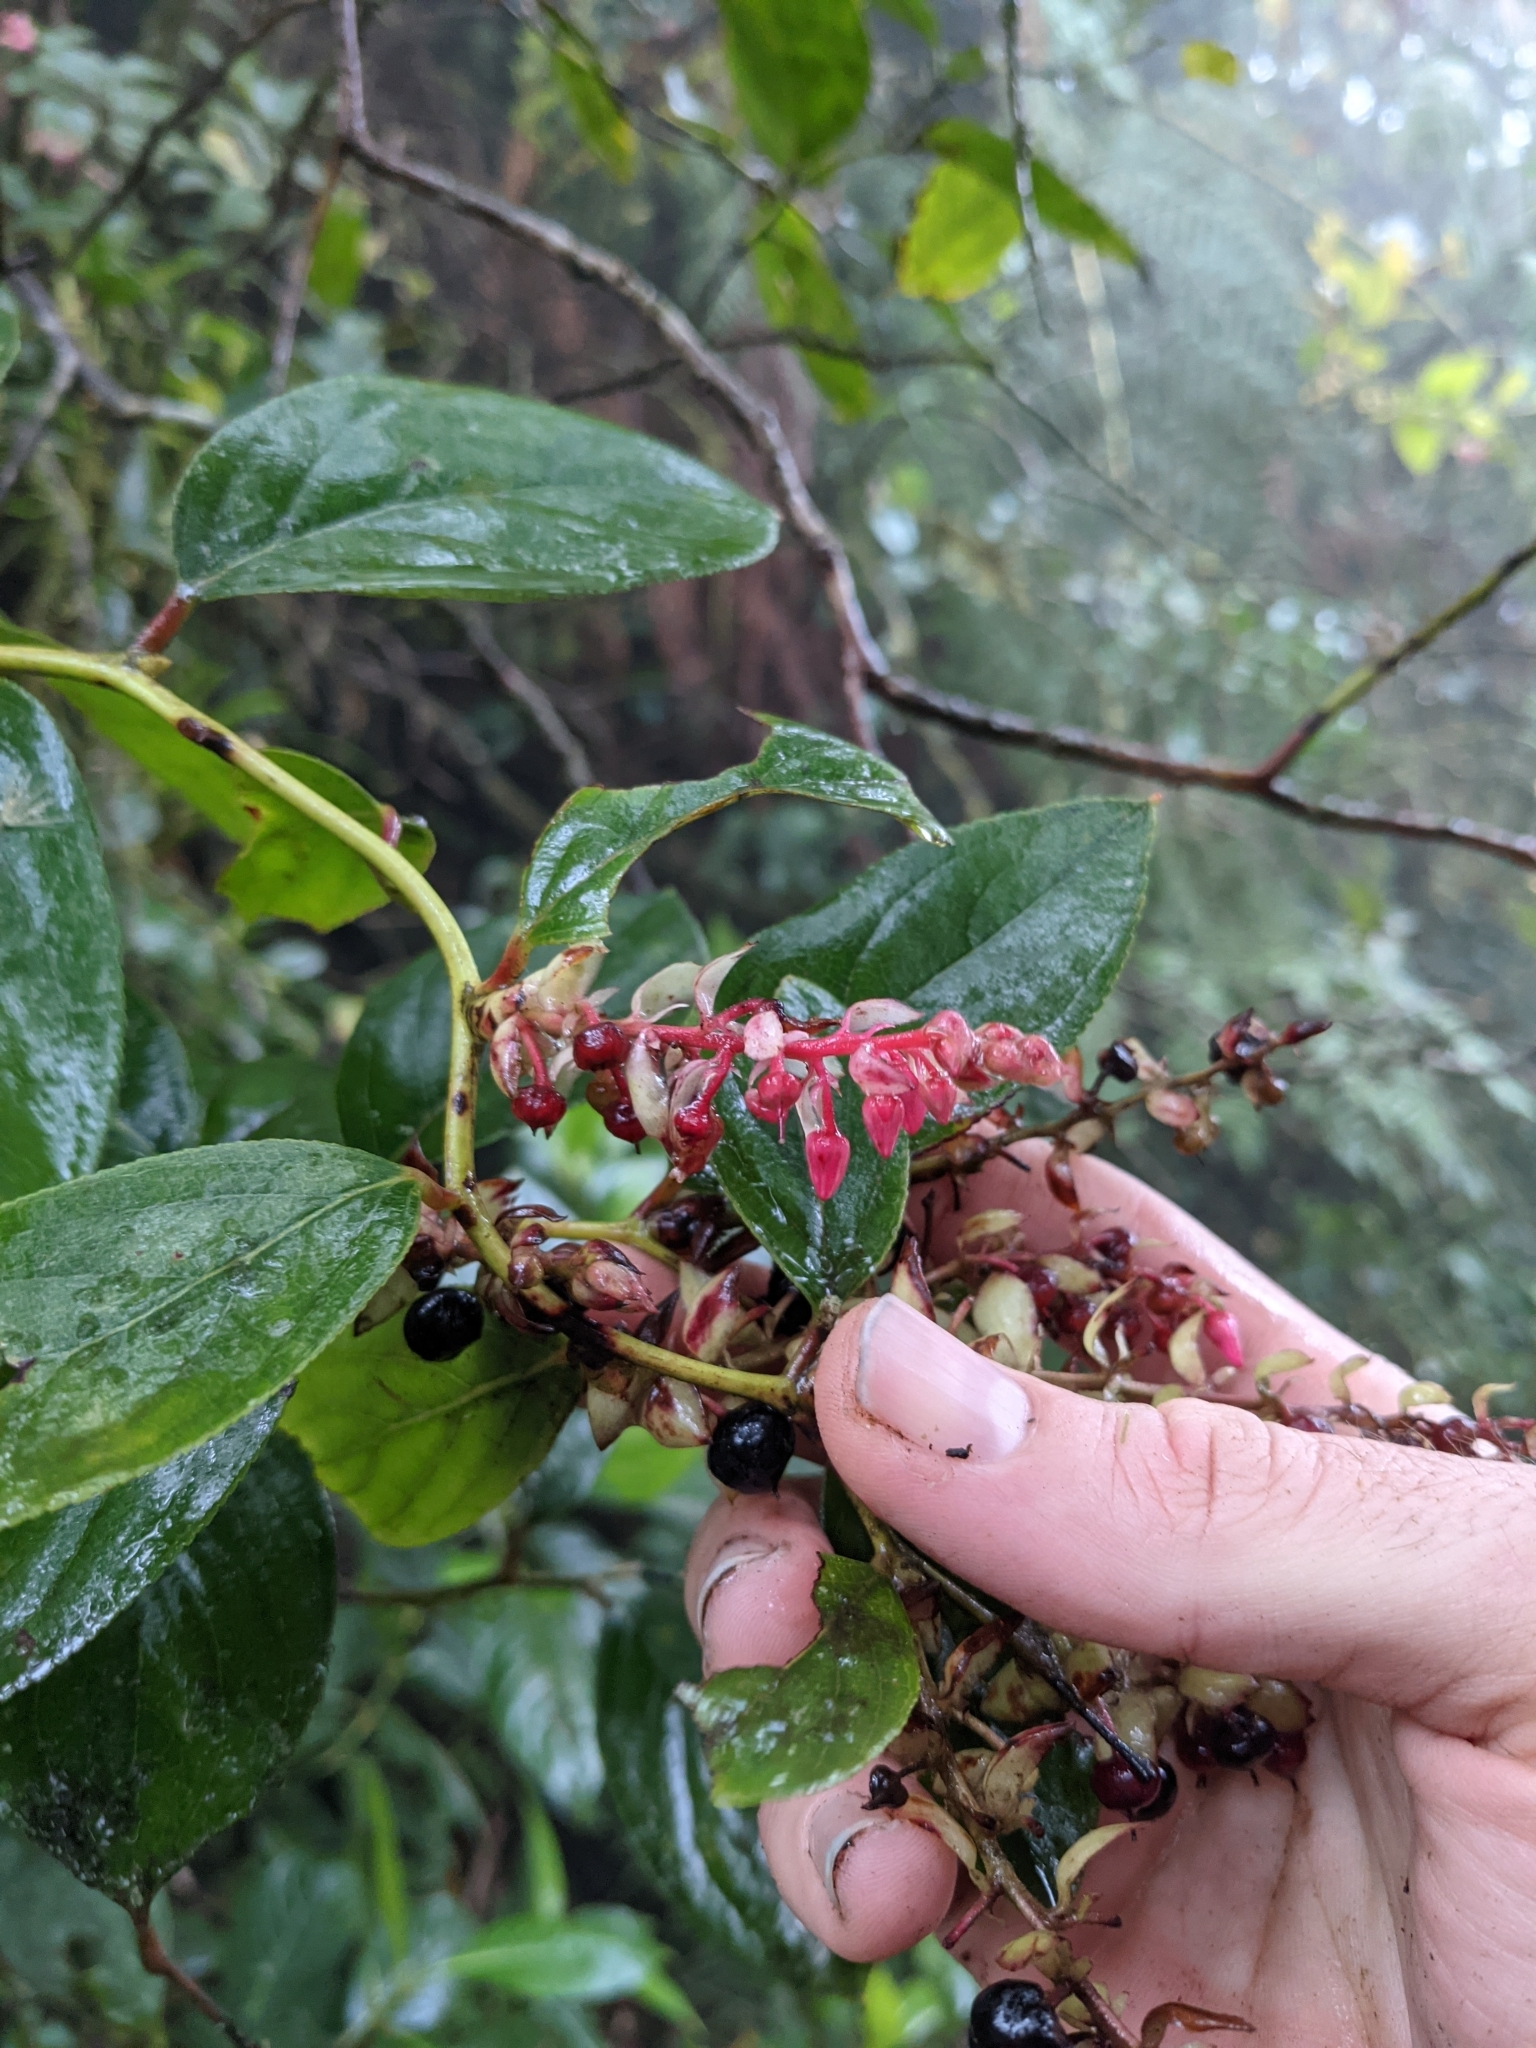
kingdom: Plantae
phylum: Tracheophyta
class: Magnoliopsida
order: Ericales
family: Ericaceae
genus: Gaultheria
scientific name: Gaultheria erecta
